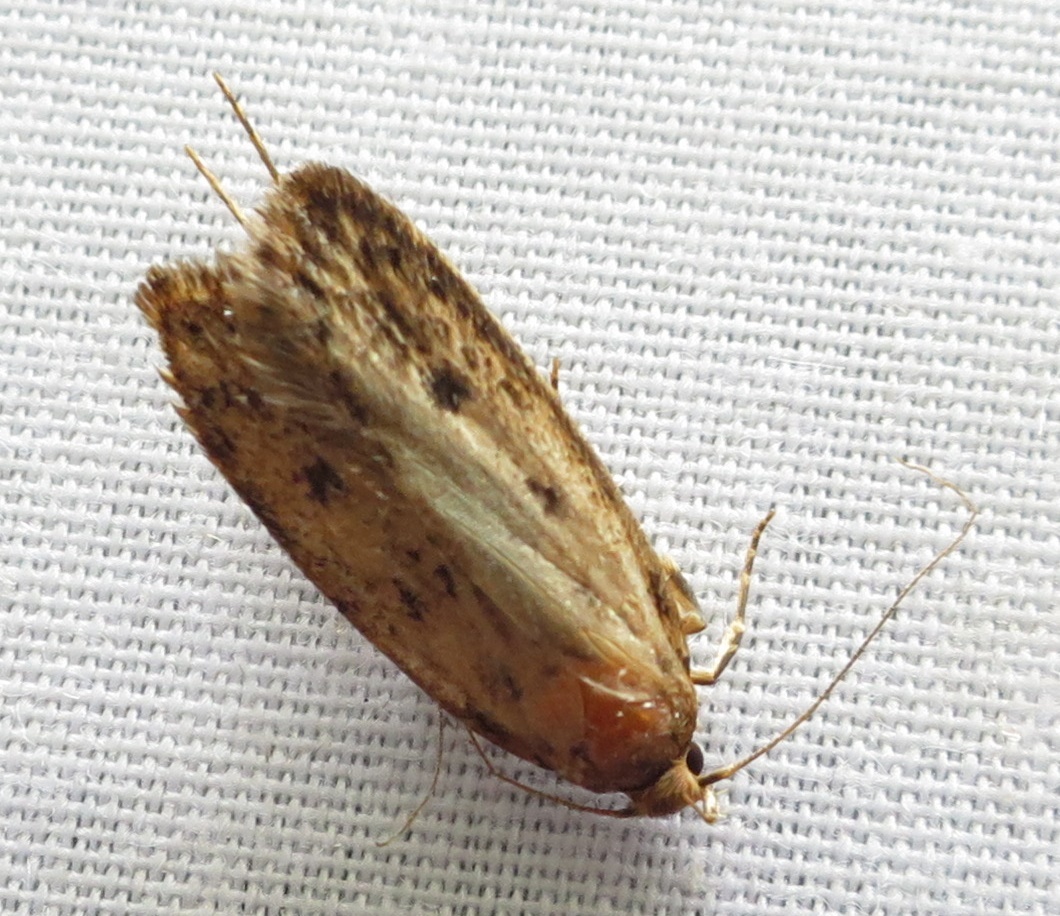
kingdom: Animalia
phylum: Arthropoda
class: Insecta
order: Lepidoptera
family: Oecophoridae
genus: Hofmannophila
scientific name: Hofmannophila pseudospretella
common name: Brown house moth
